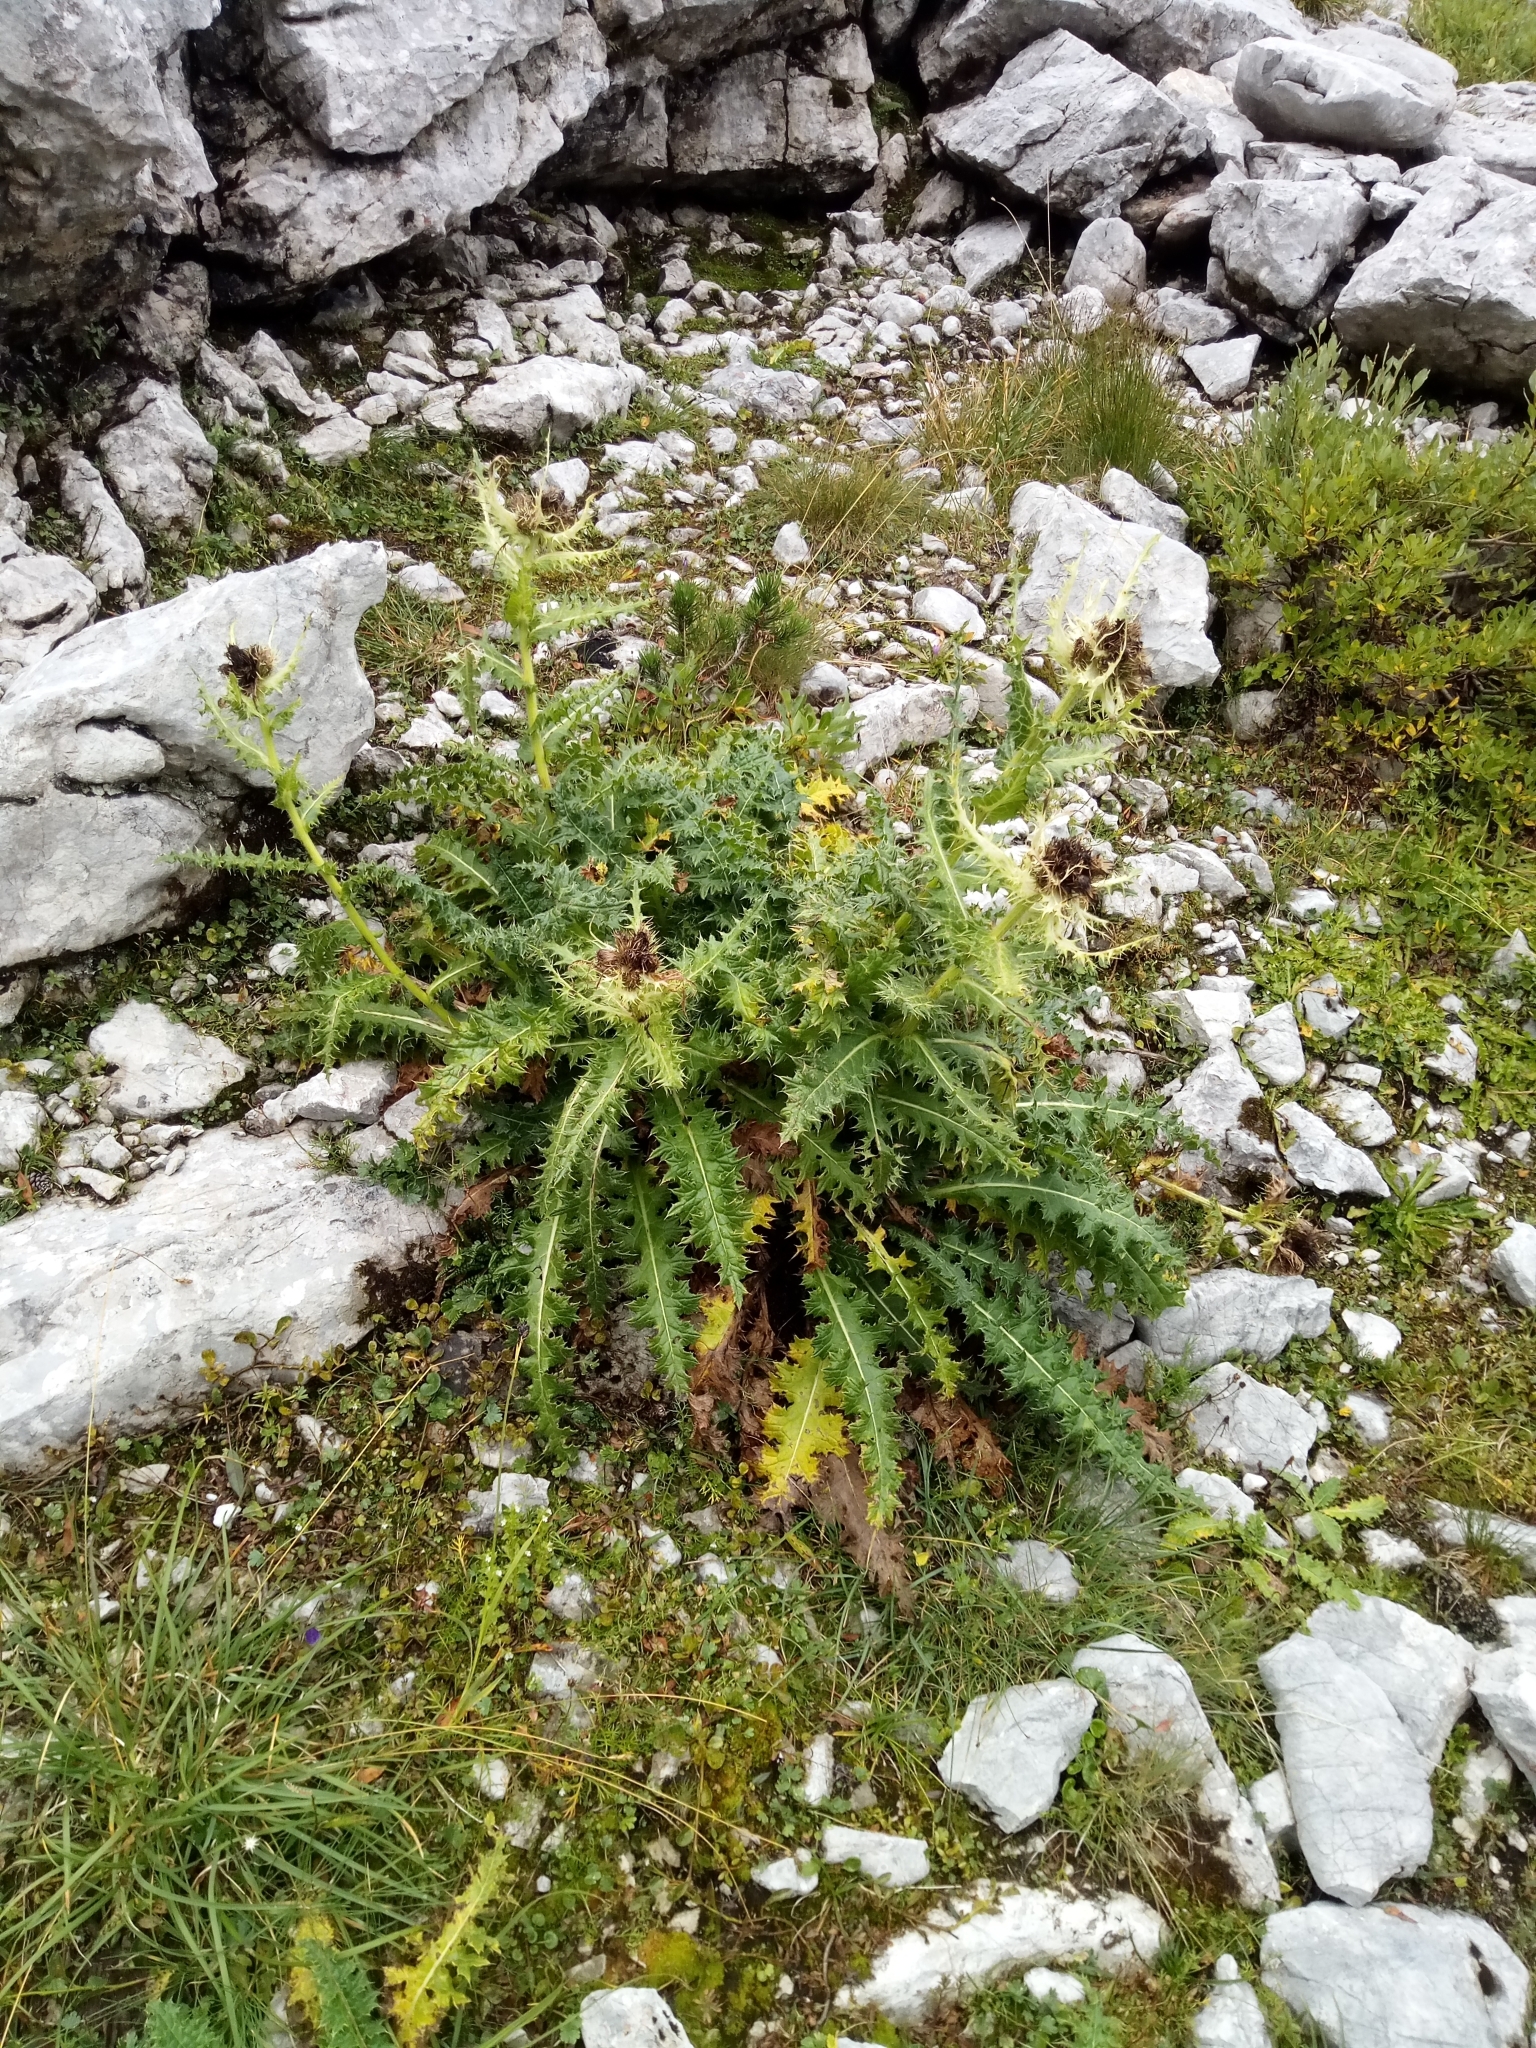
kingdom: Plantae
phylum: Tracheophyta
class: Magnoliopsida
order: Asterales
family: Asteraceae
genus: Cirsium
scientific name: Cirsium spinosissimum
